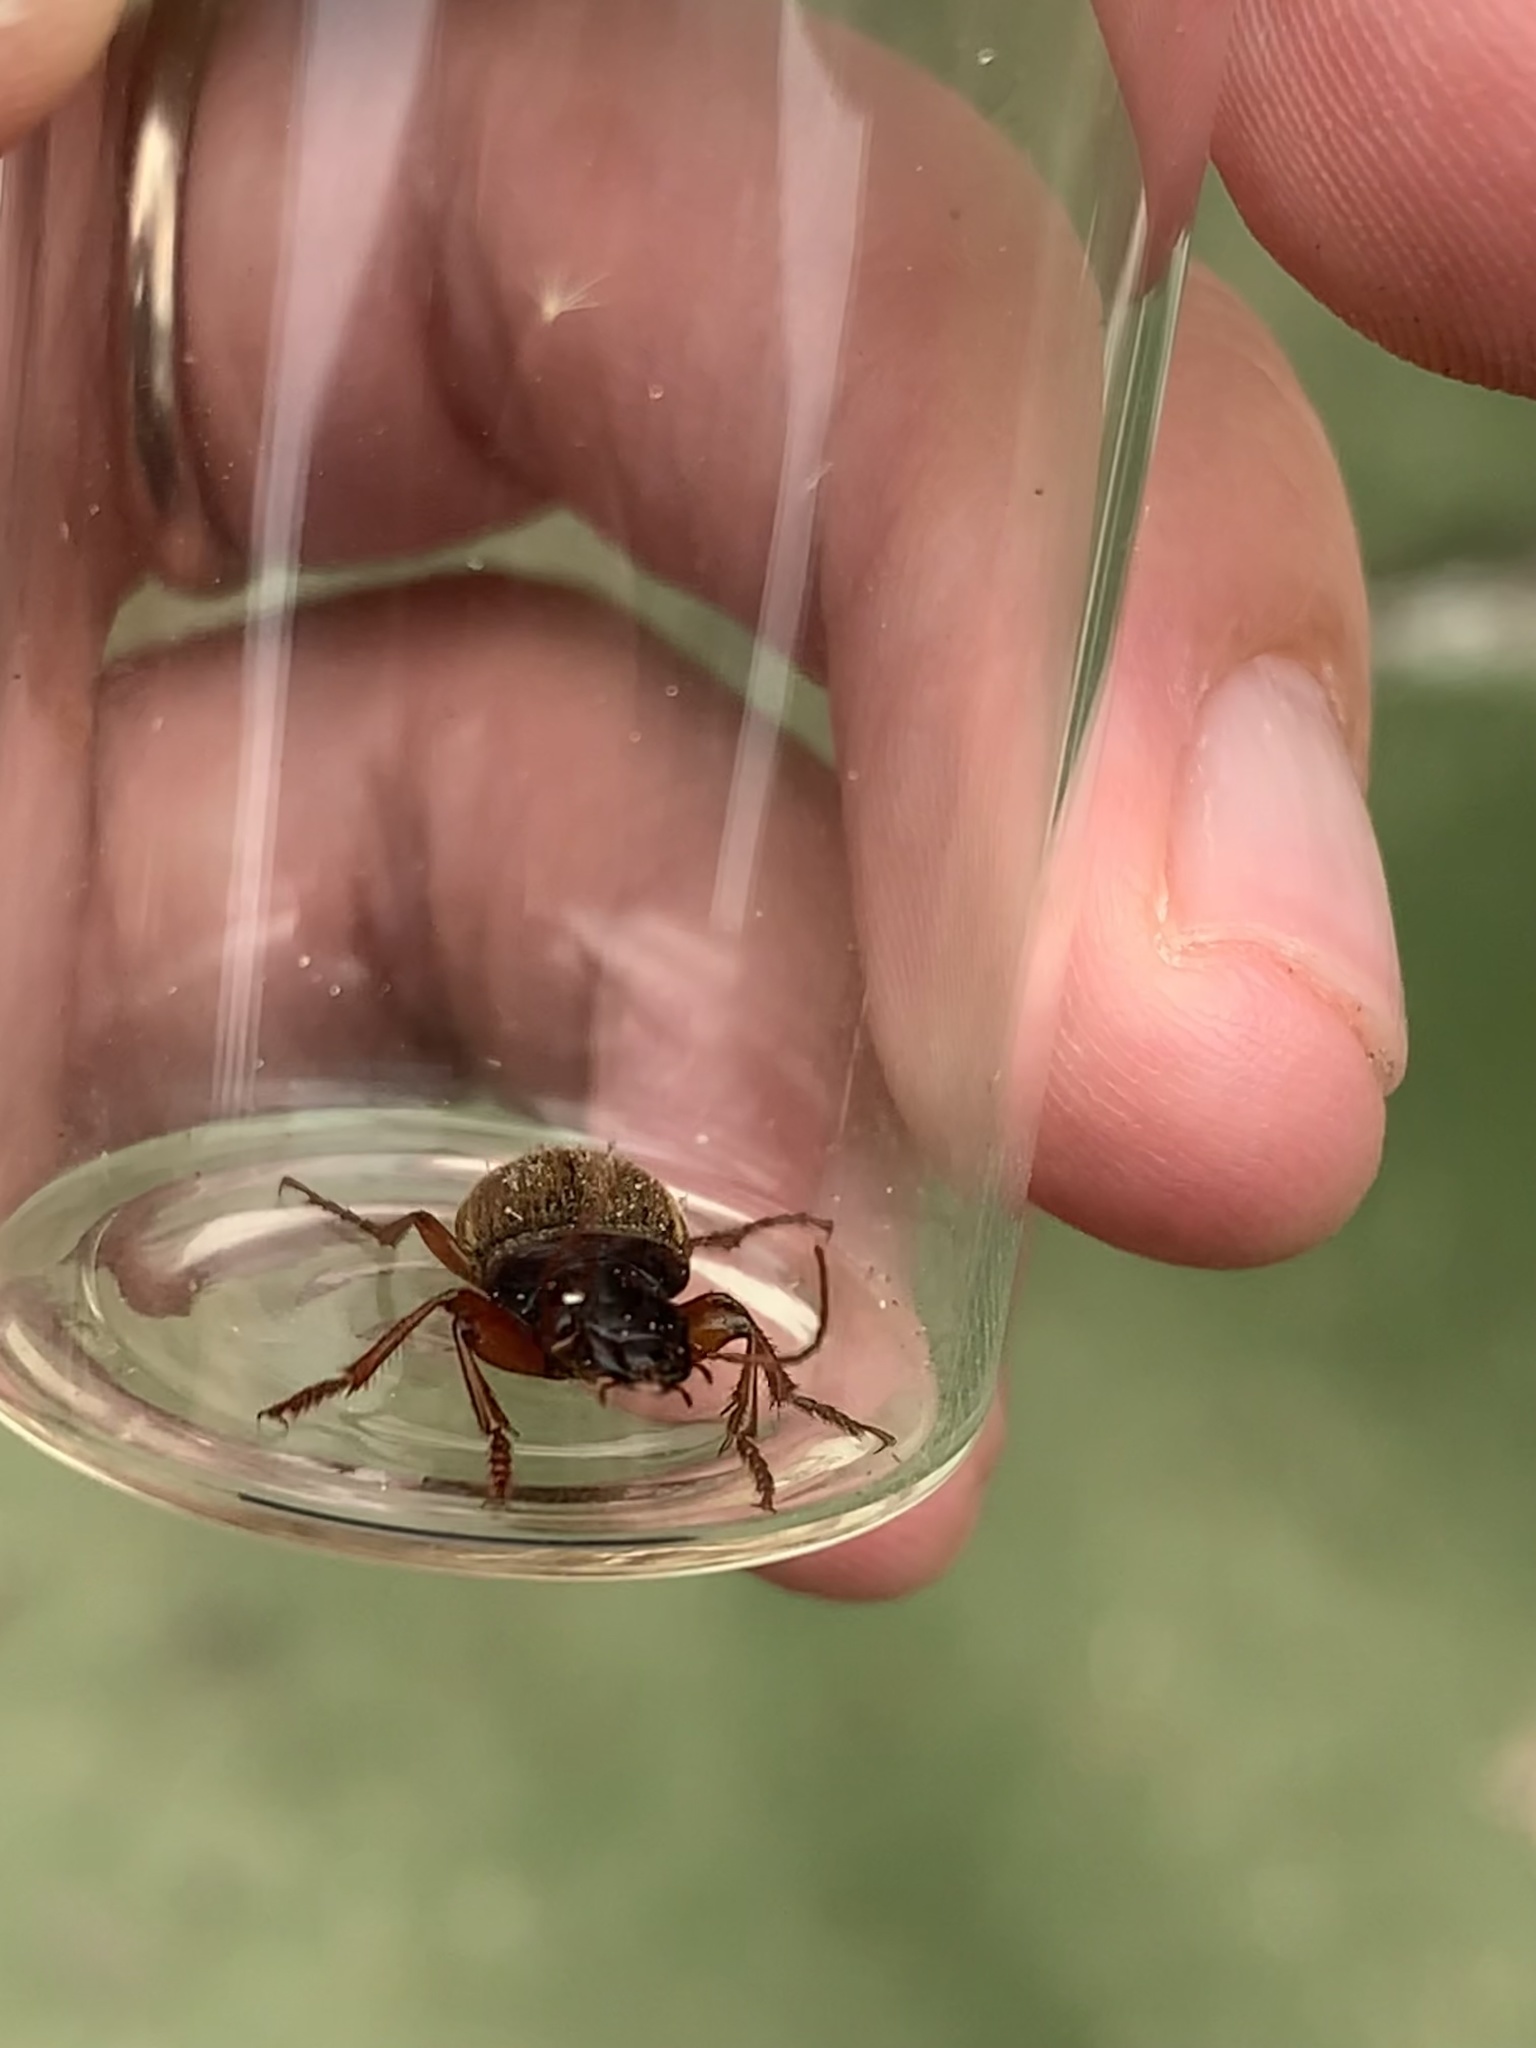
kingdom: Animalia
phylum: Arthropoda
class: Insecta
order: Coleoptera
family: Carabidae
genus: Harpalus
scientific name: Harpalus rufipes
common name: Strawberry harp ground beetle
